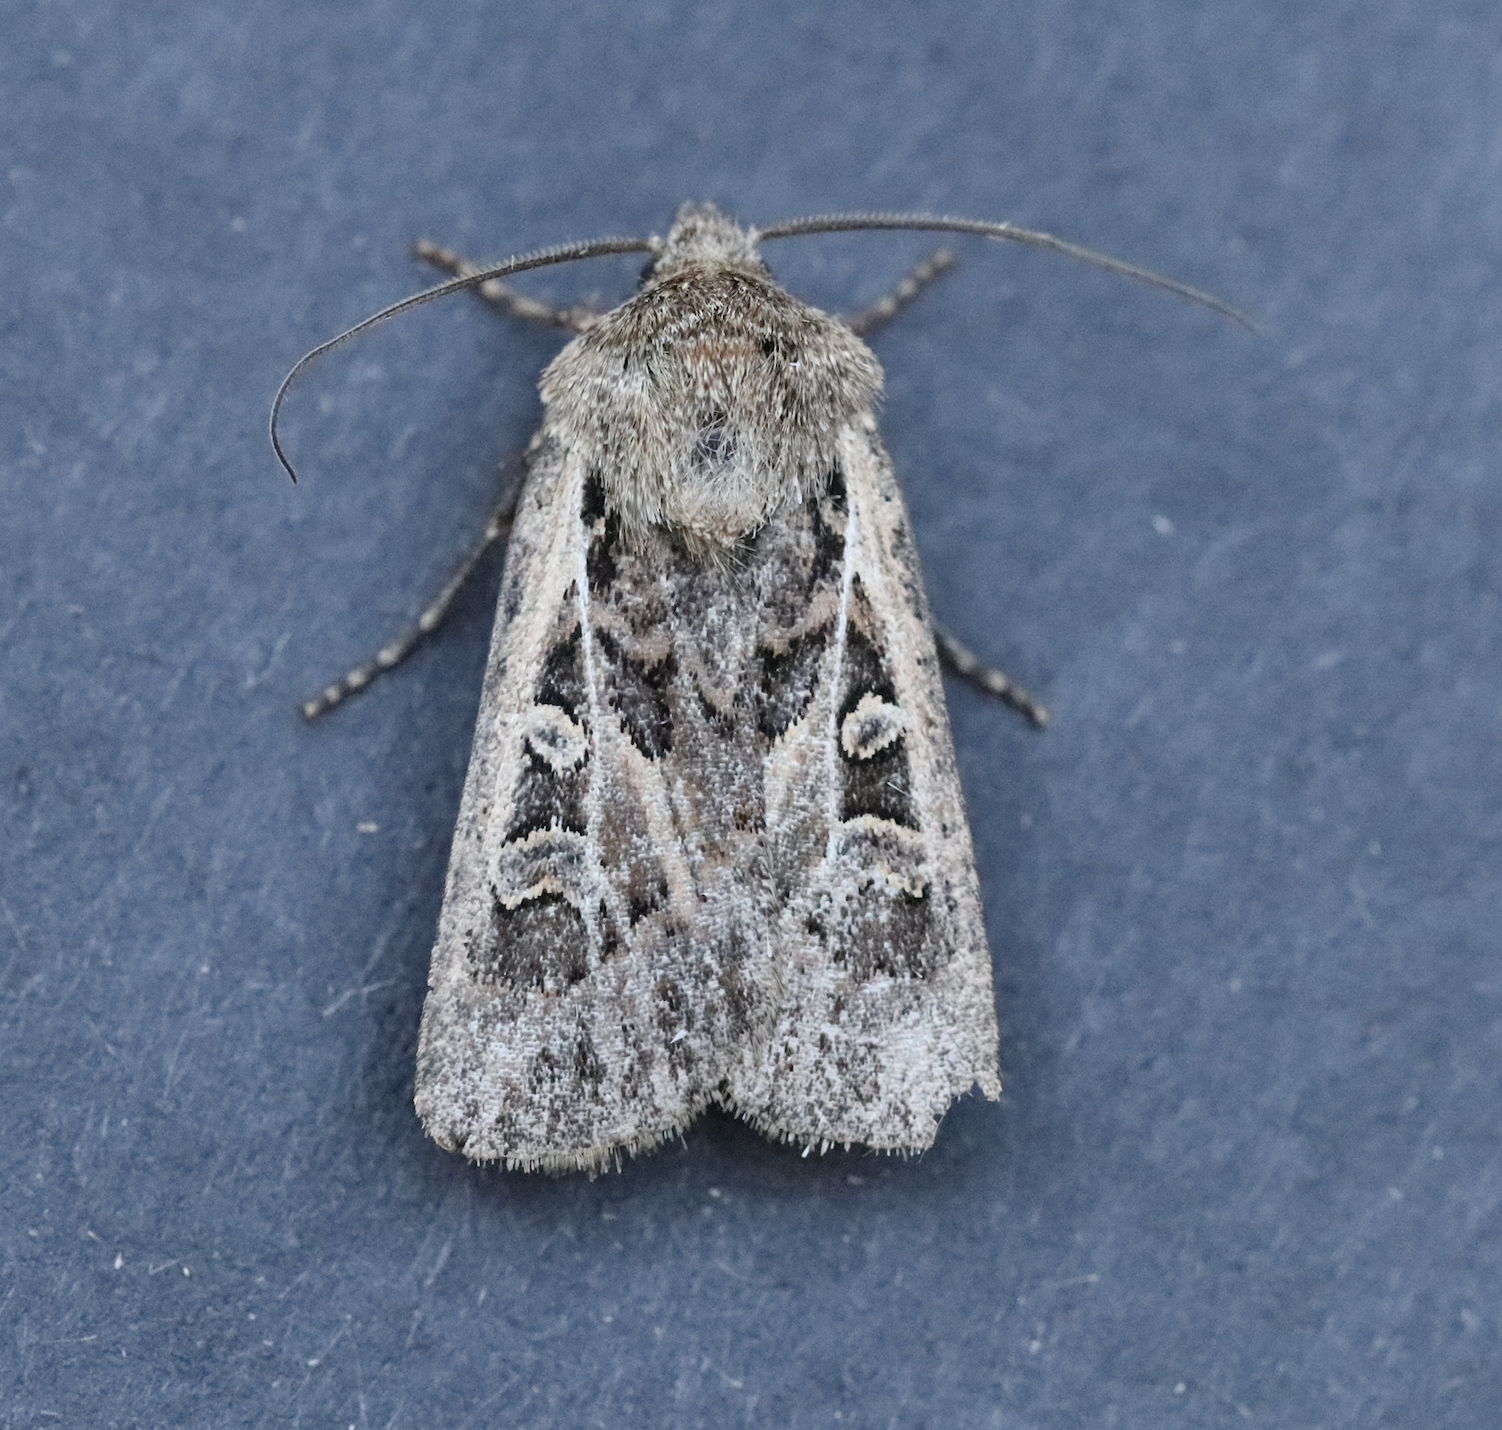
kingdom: Animalia
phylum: Arthropoda
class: Insecta
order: Lepidoptera
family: Noctuidae
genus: Euxoa
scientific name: Euxoa ridingsiana
